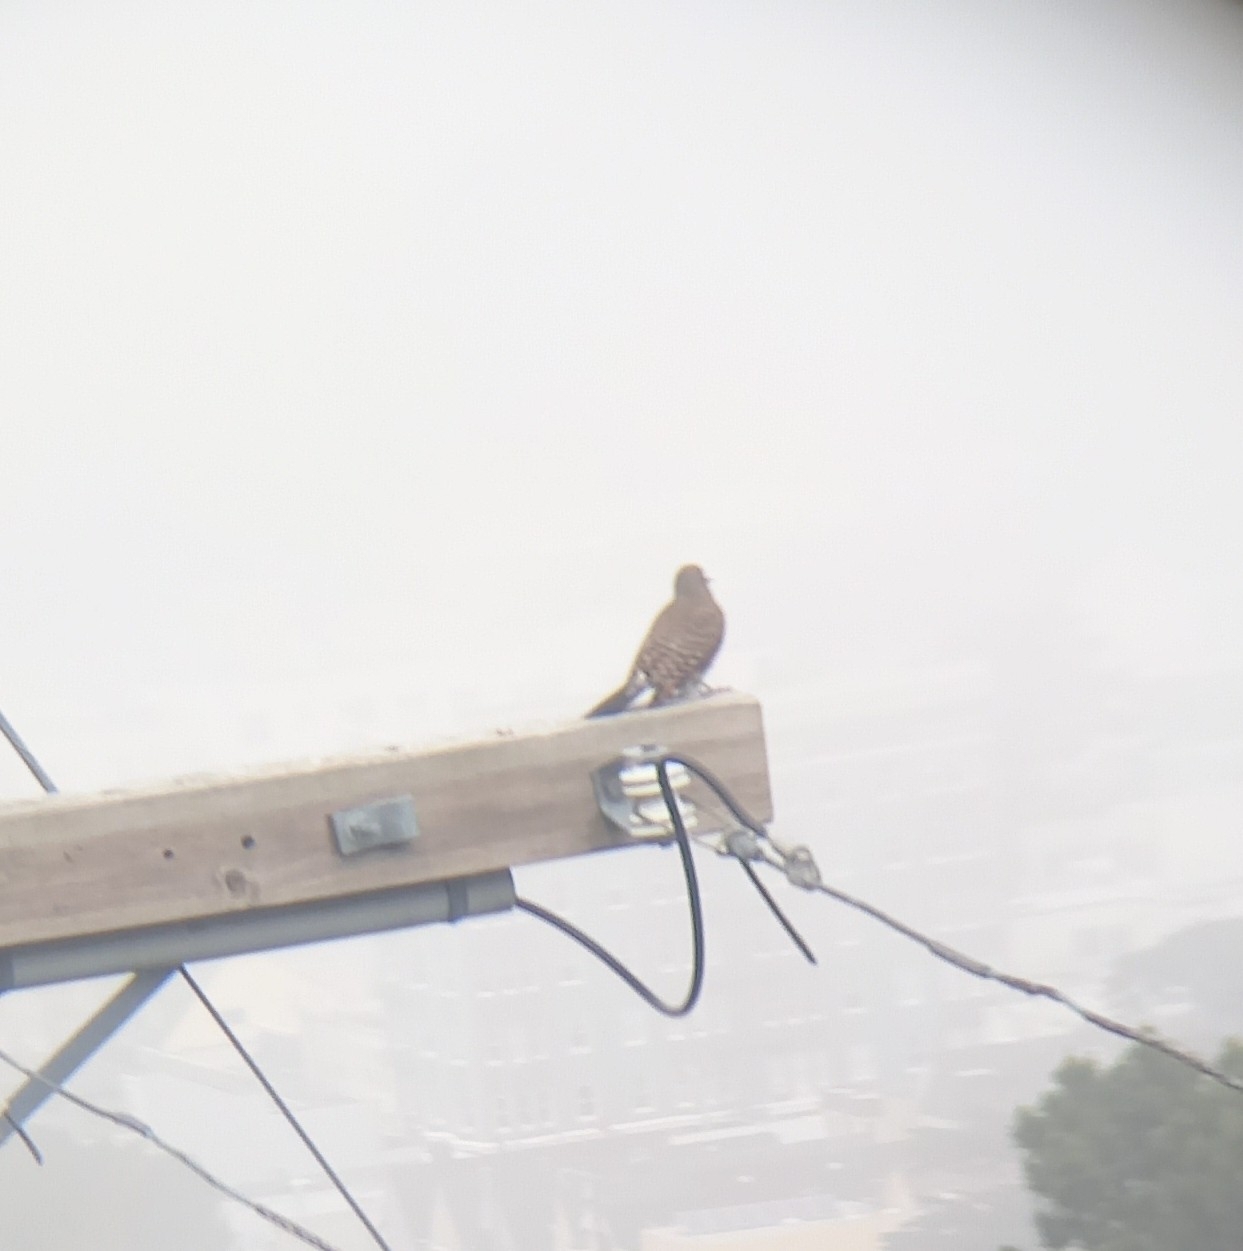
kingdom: Animalia
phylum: Chordata
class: Aves
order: Piciformes
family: Picidae
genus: Colaptes
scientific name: Colaptes auratus
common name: Northern flicker
